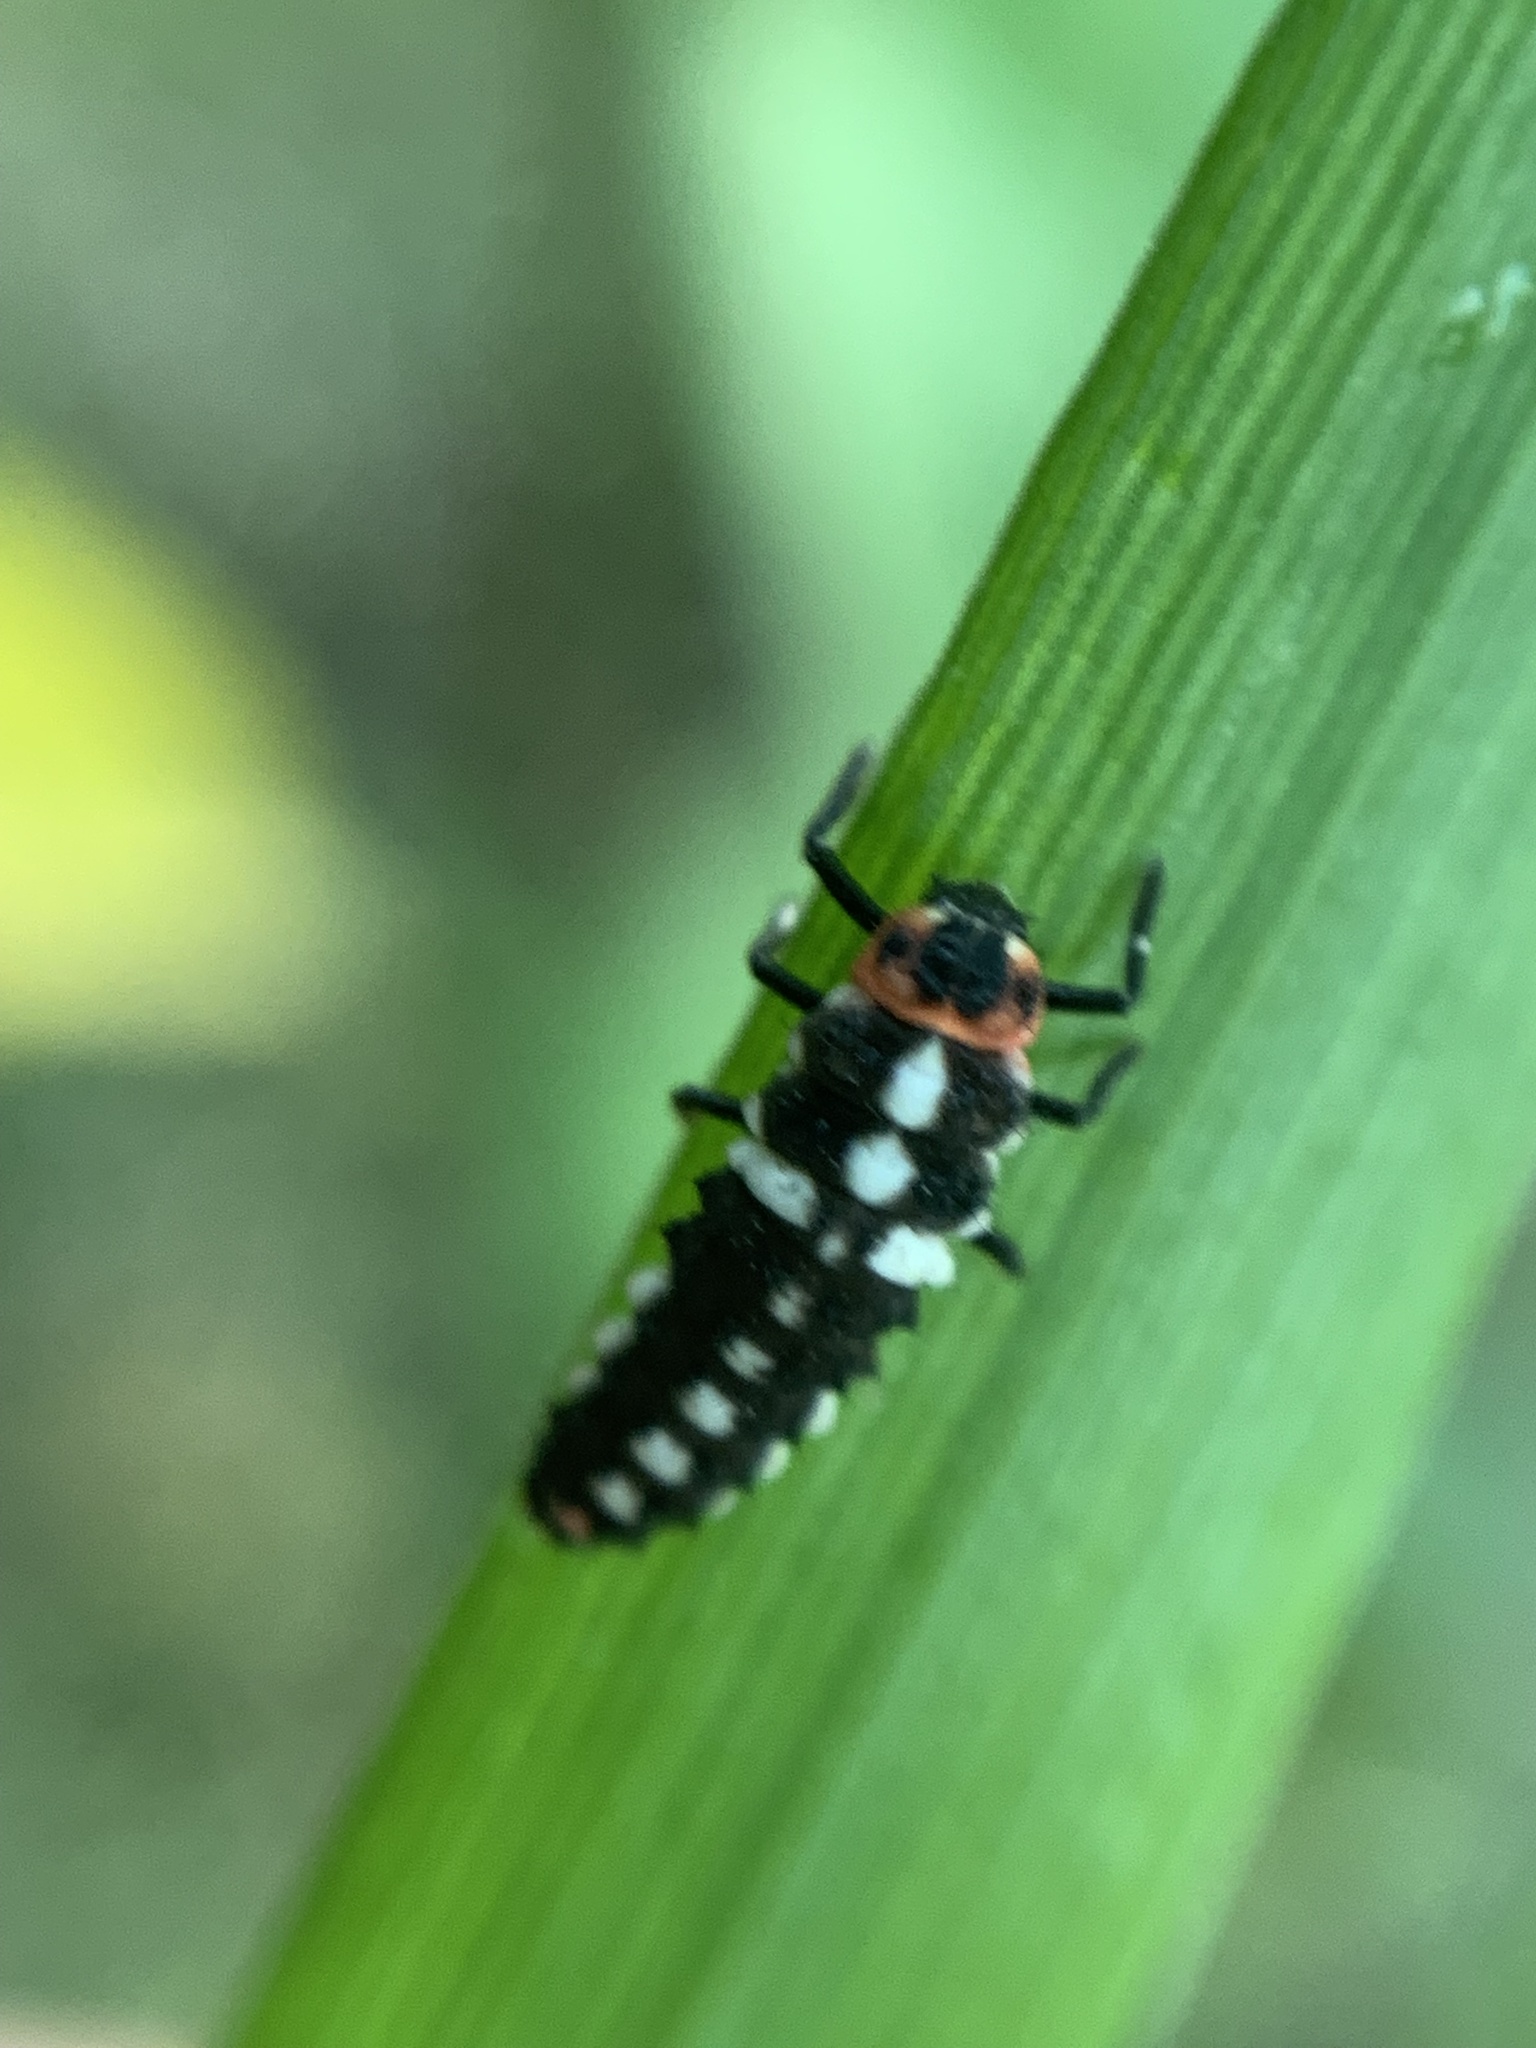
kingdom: Animalia
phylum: Arthropoda
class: Insecta
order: Coleoptera
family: Coccinellidae
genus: Eriopis
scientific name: Eriopis connexa
